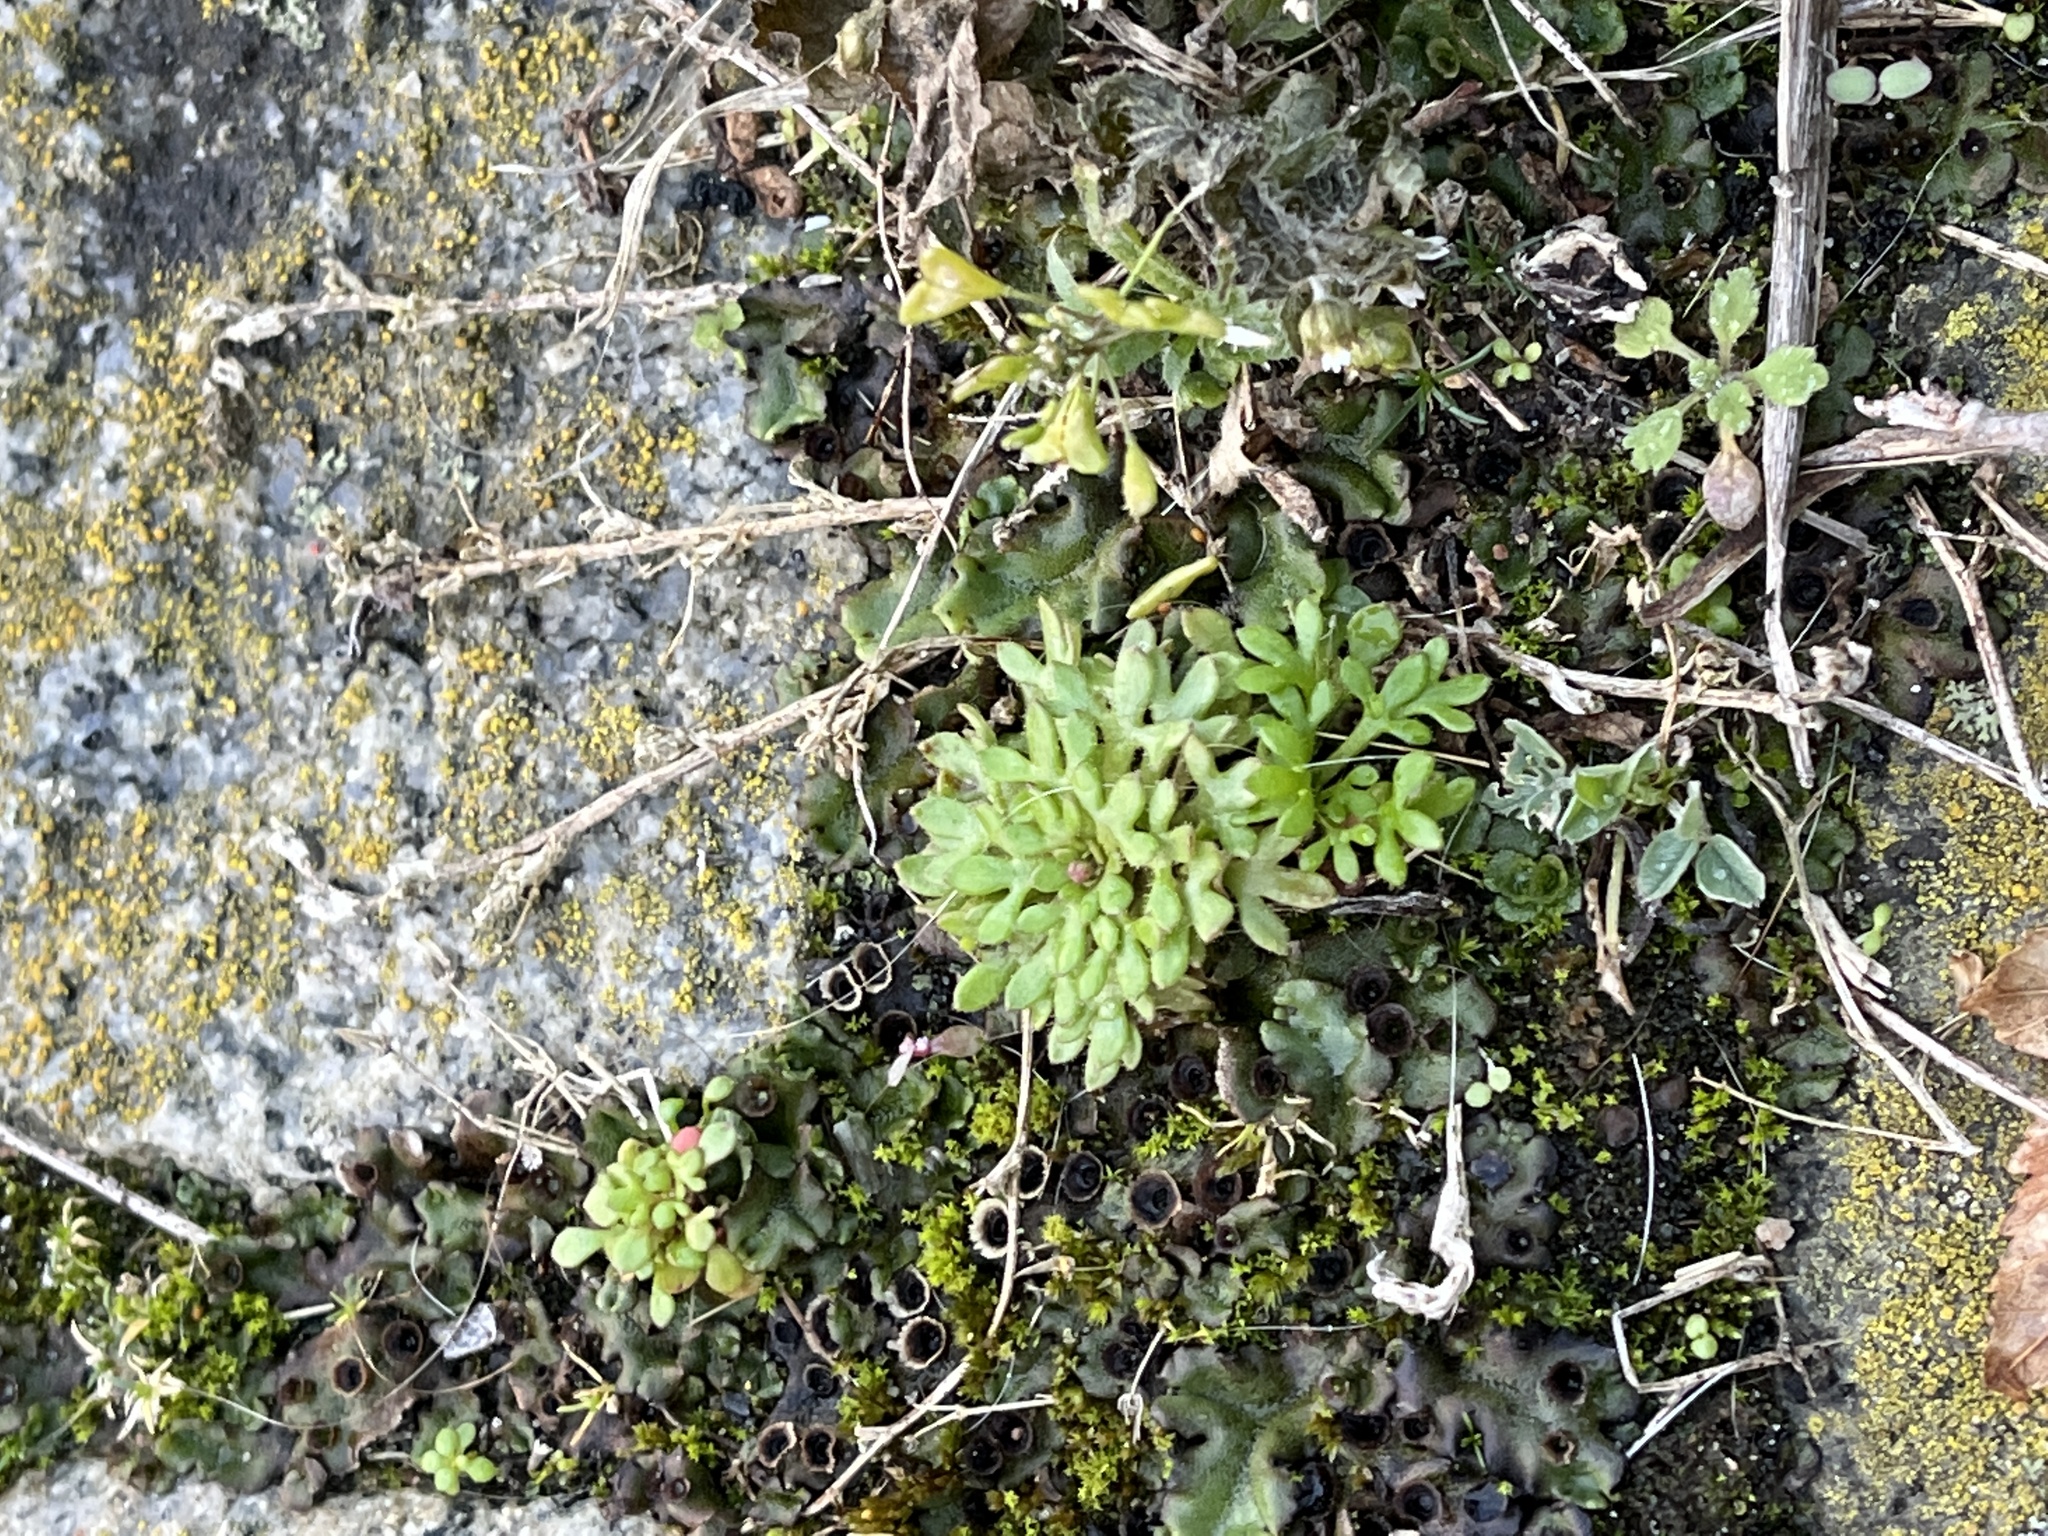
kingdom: Plantae
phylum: Tracheophyta
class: Magnoliopsida
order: Saxifragales
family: Saxifragaceae
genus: Saxifraga
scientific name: Saxifraga tridactylites
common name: Rue-leaved saxifrage
